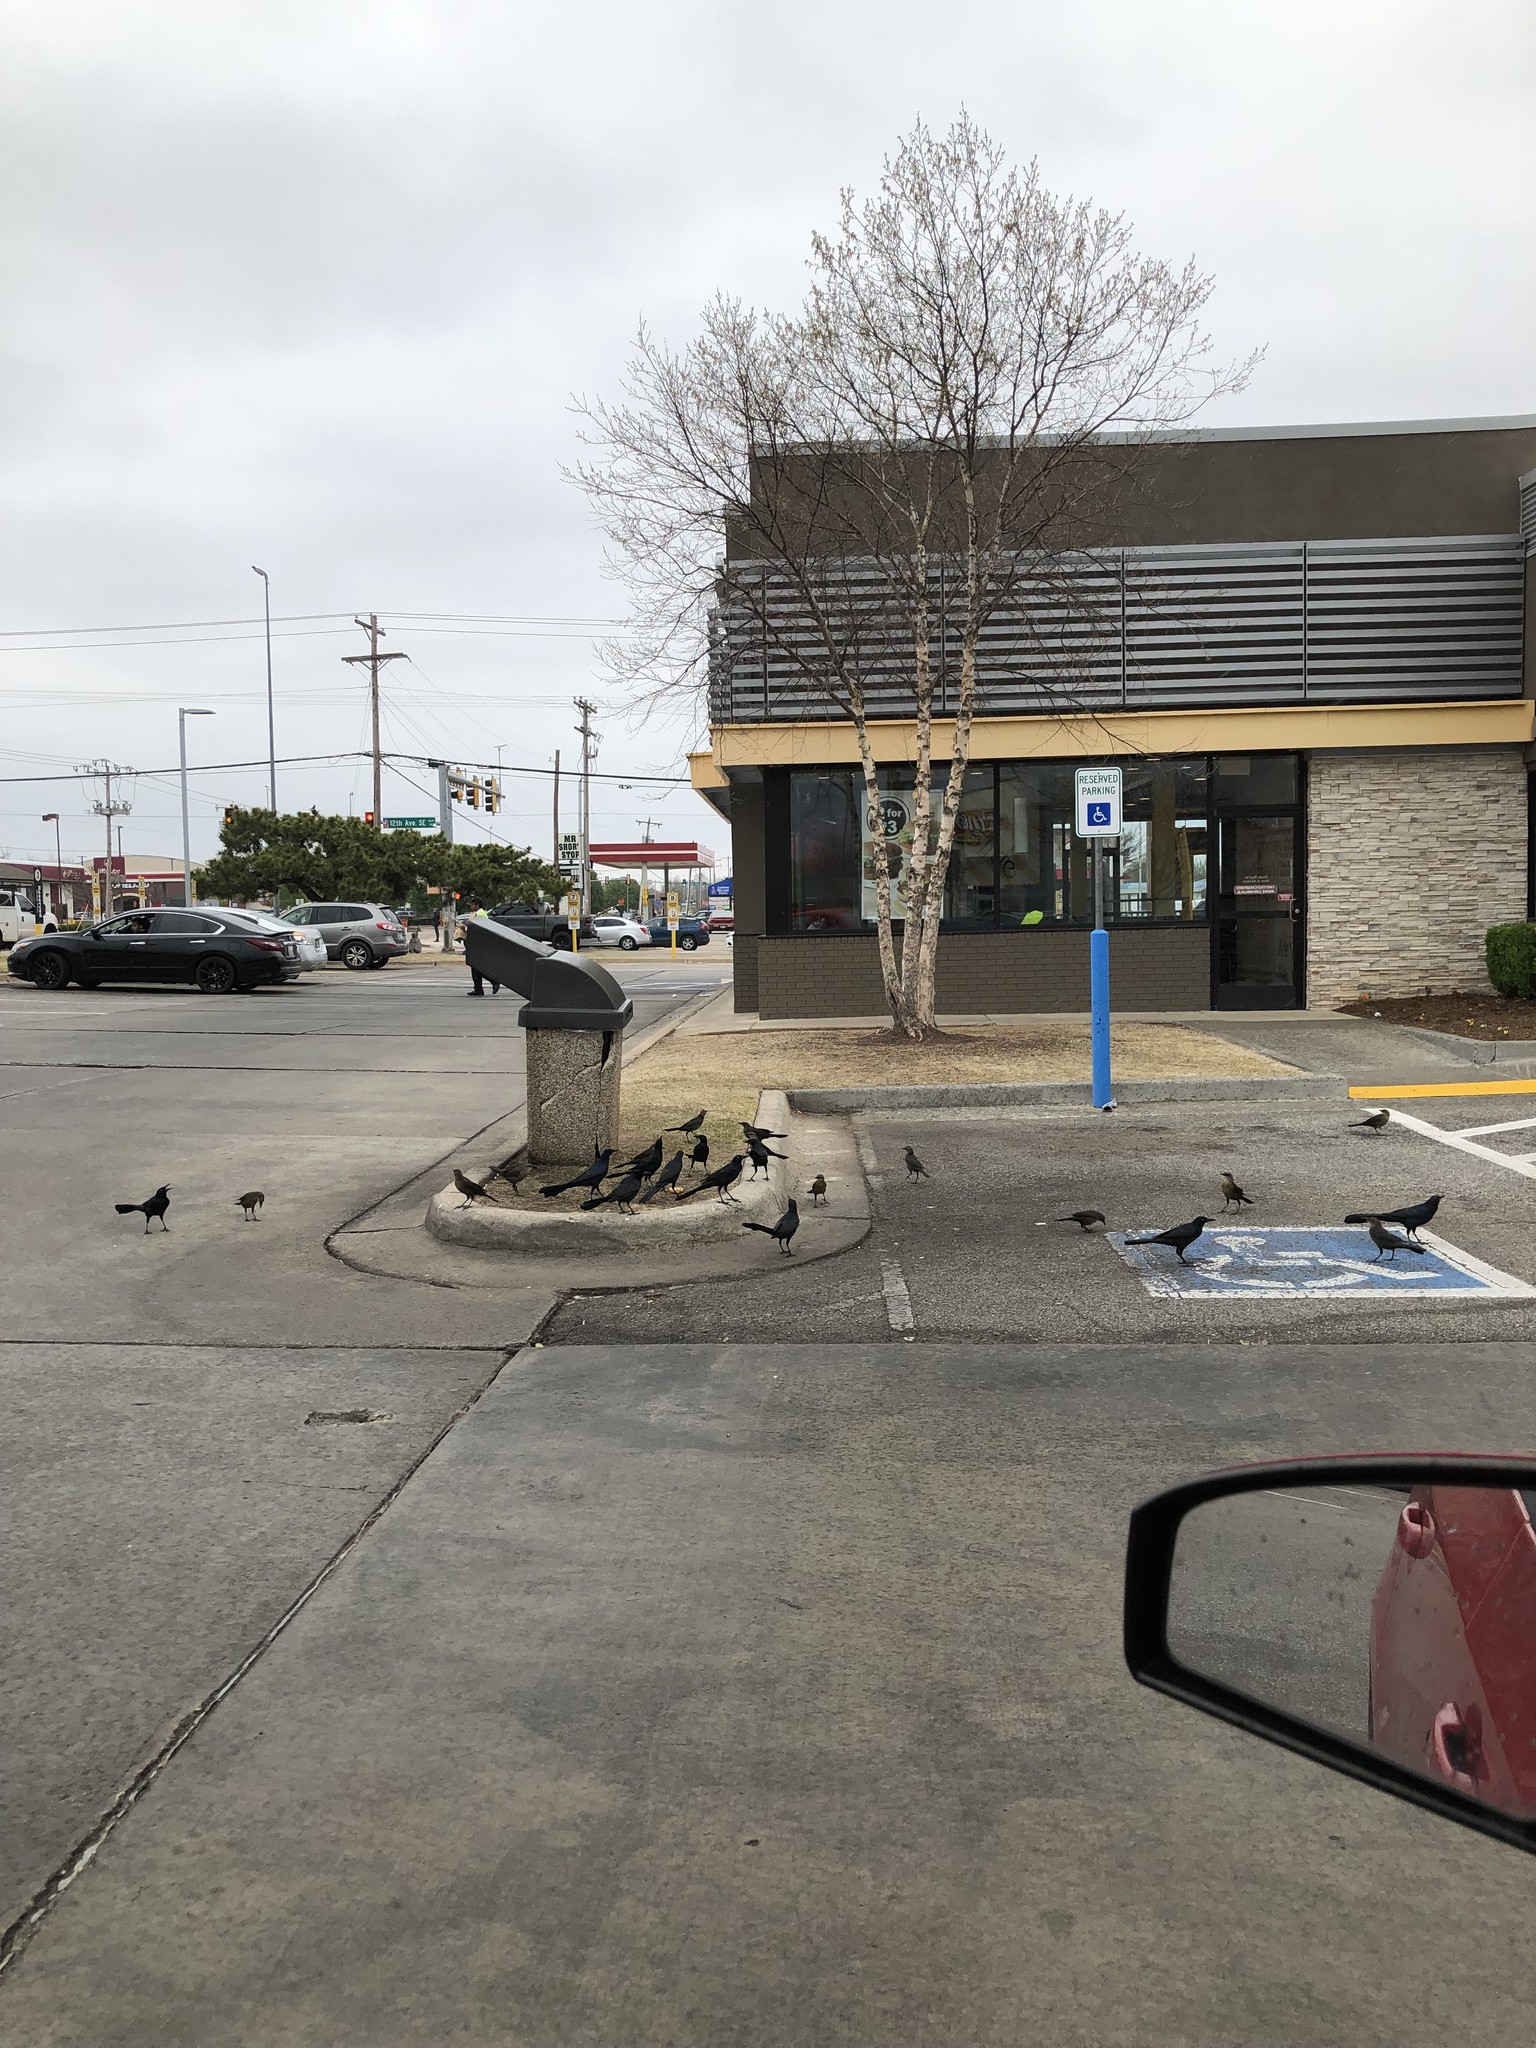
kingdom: Animalia
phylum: Chordata
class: Aves
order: Passeriformes
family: Icteridae
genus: Quiscalus
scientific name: Quiscalus mexicanus
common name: Great-tailed grackle
